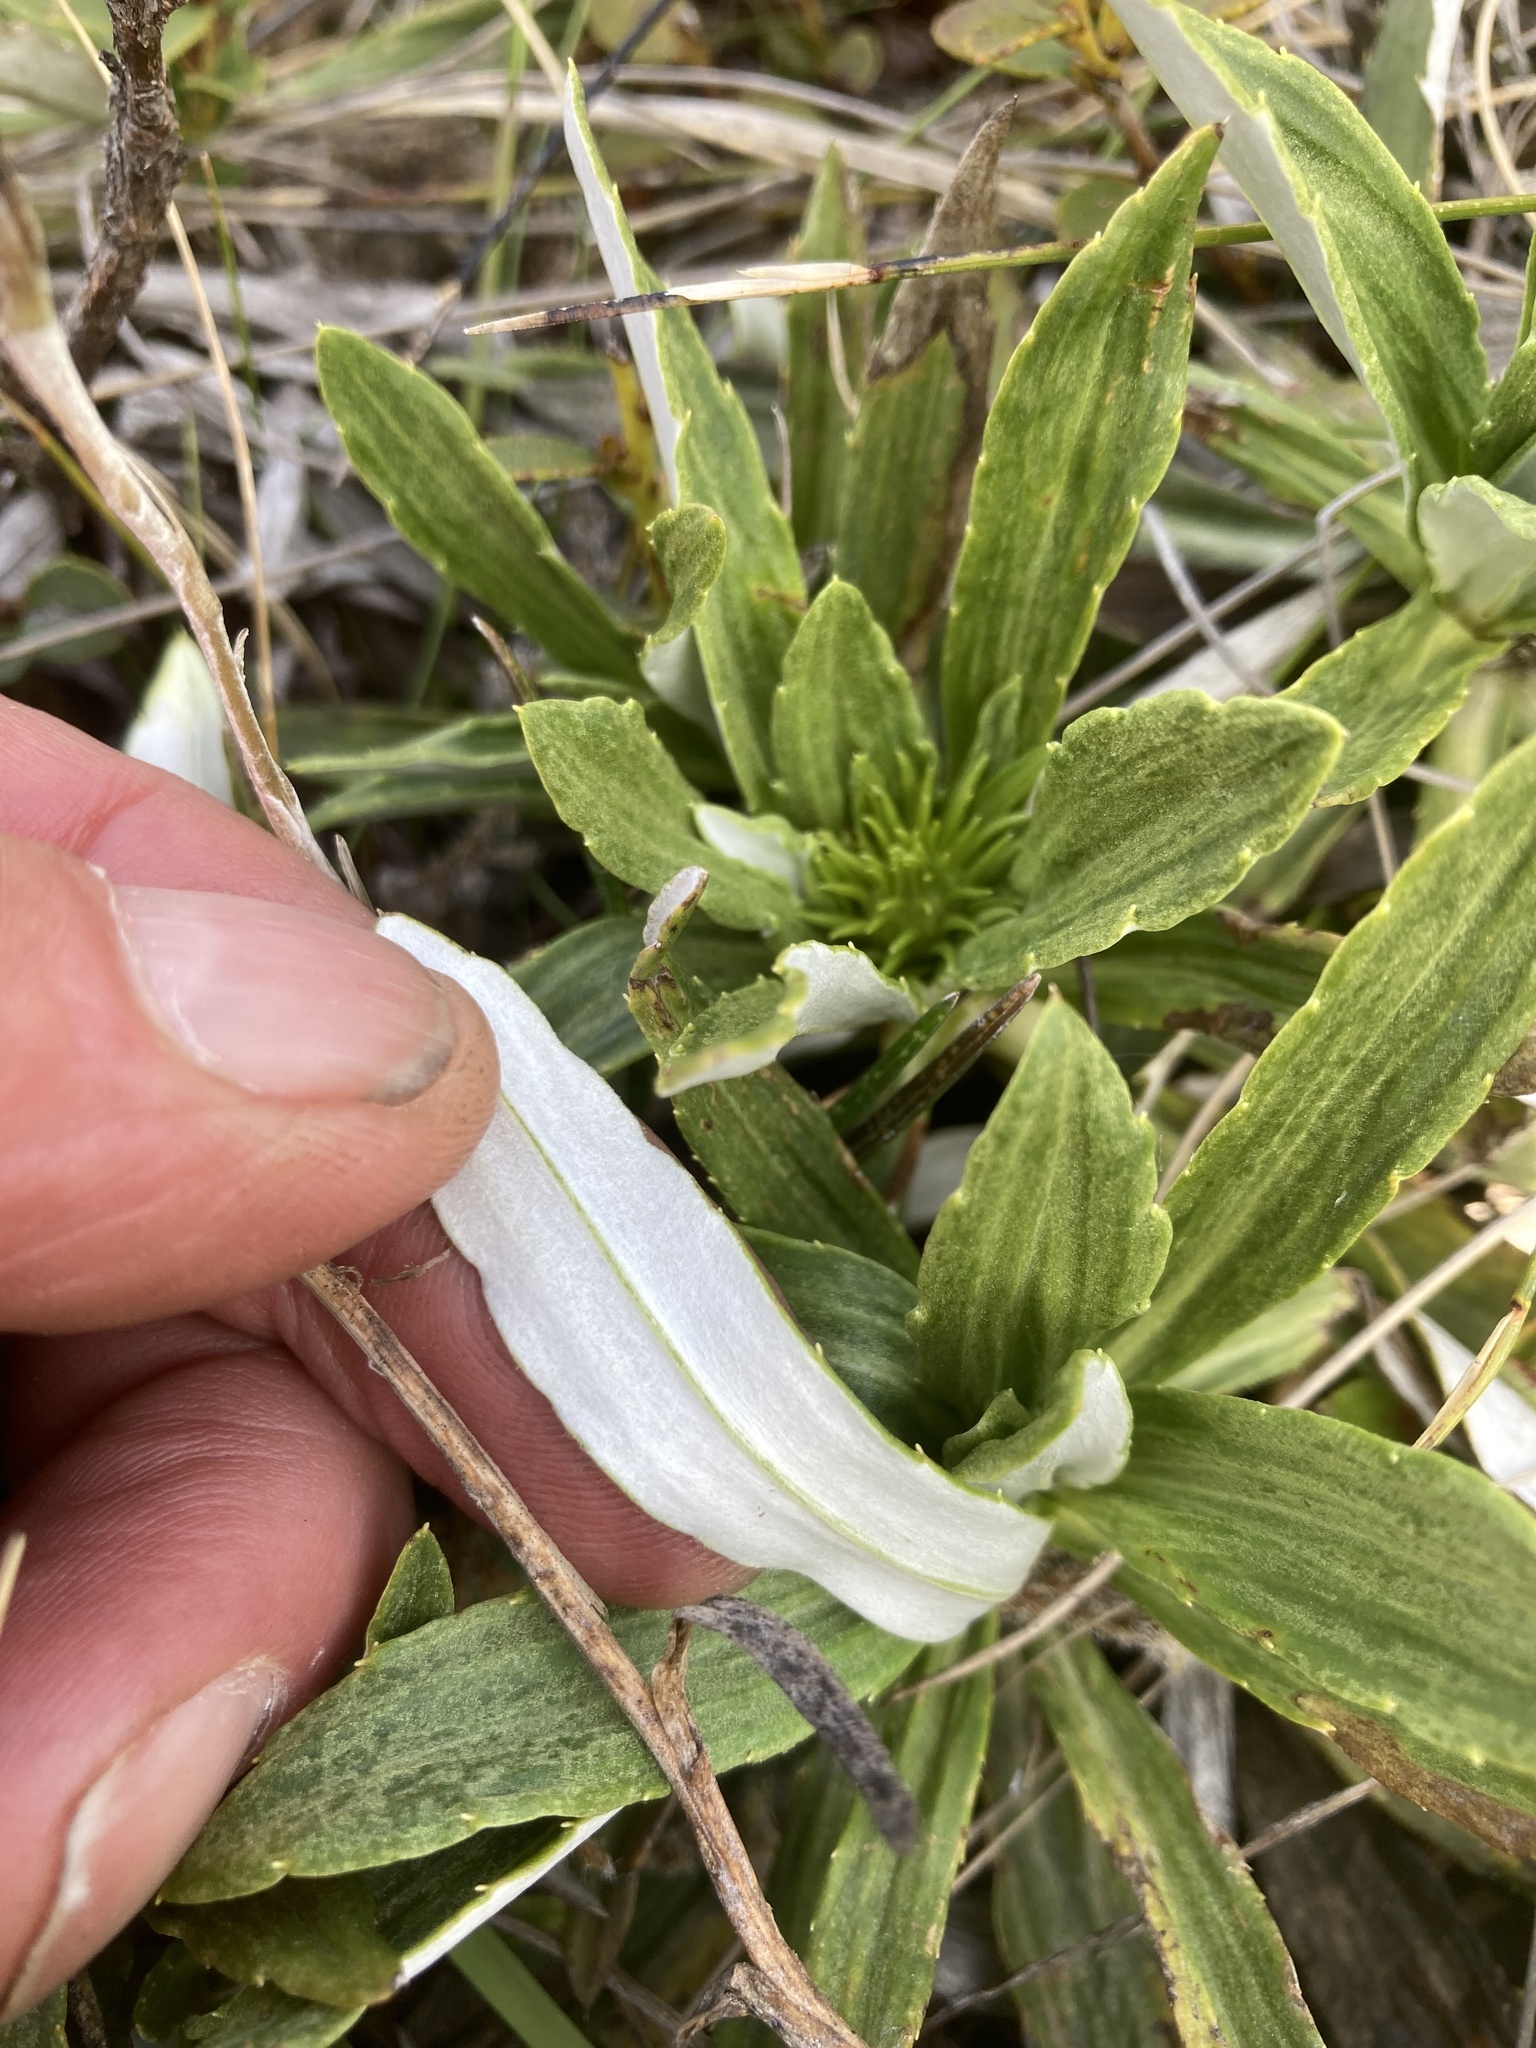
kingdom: Plantae
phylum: Tracheophyta
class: Magnoliopsida
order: Asterales
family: Asteraceae
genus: Celmisia
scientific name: Celmisia densiflora
